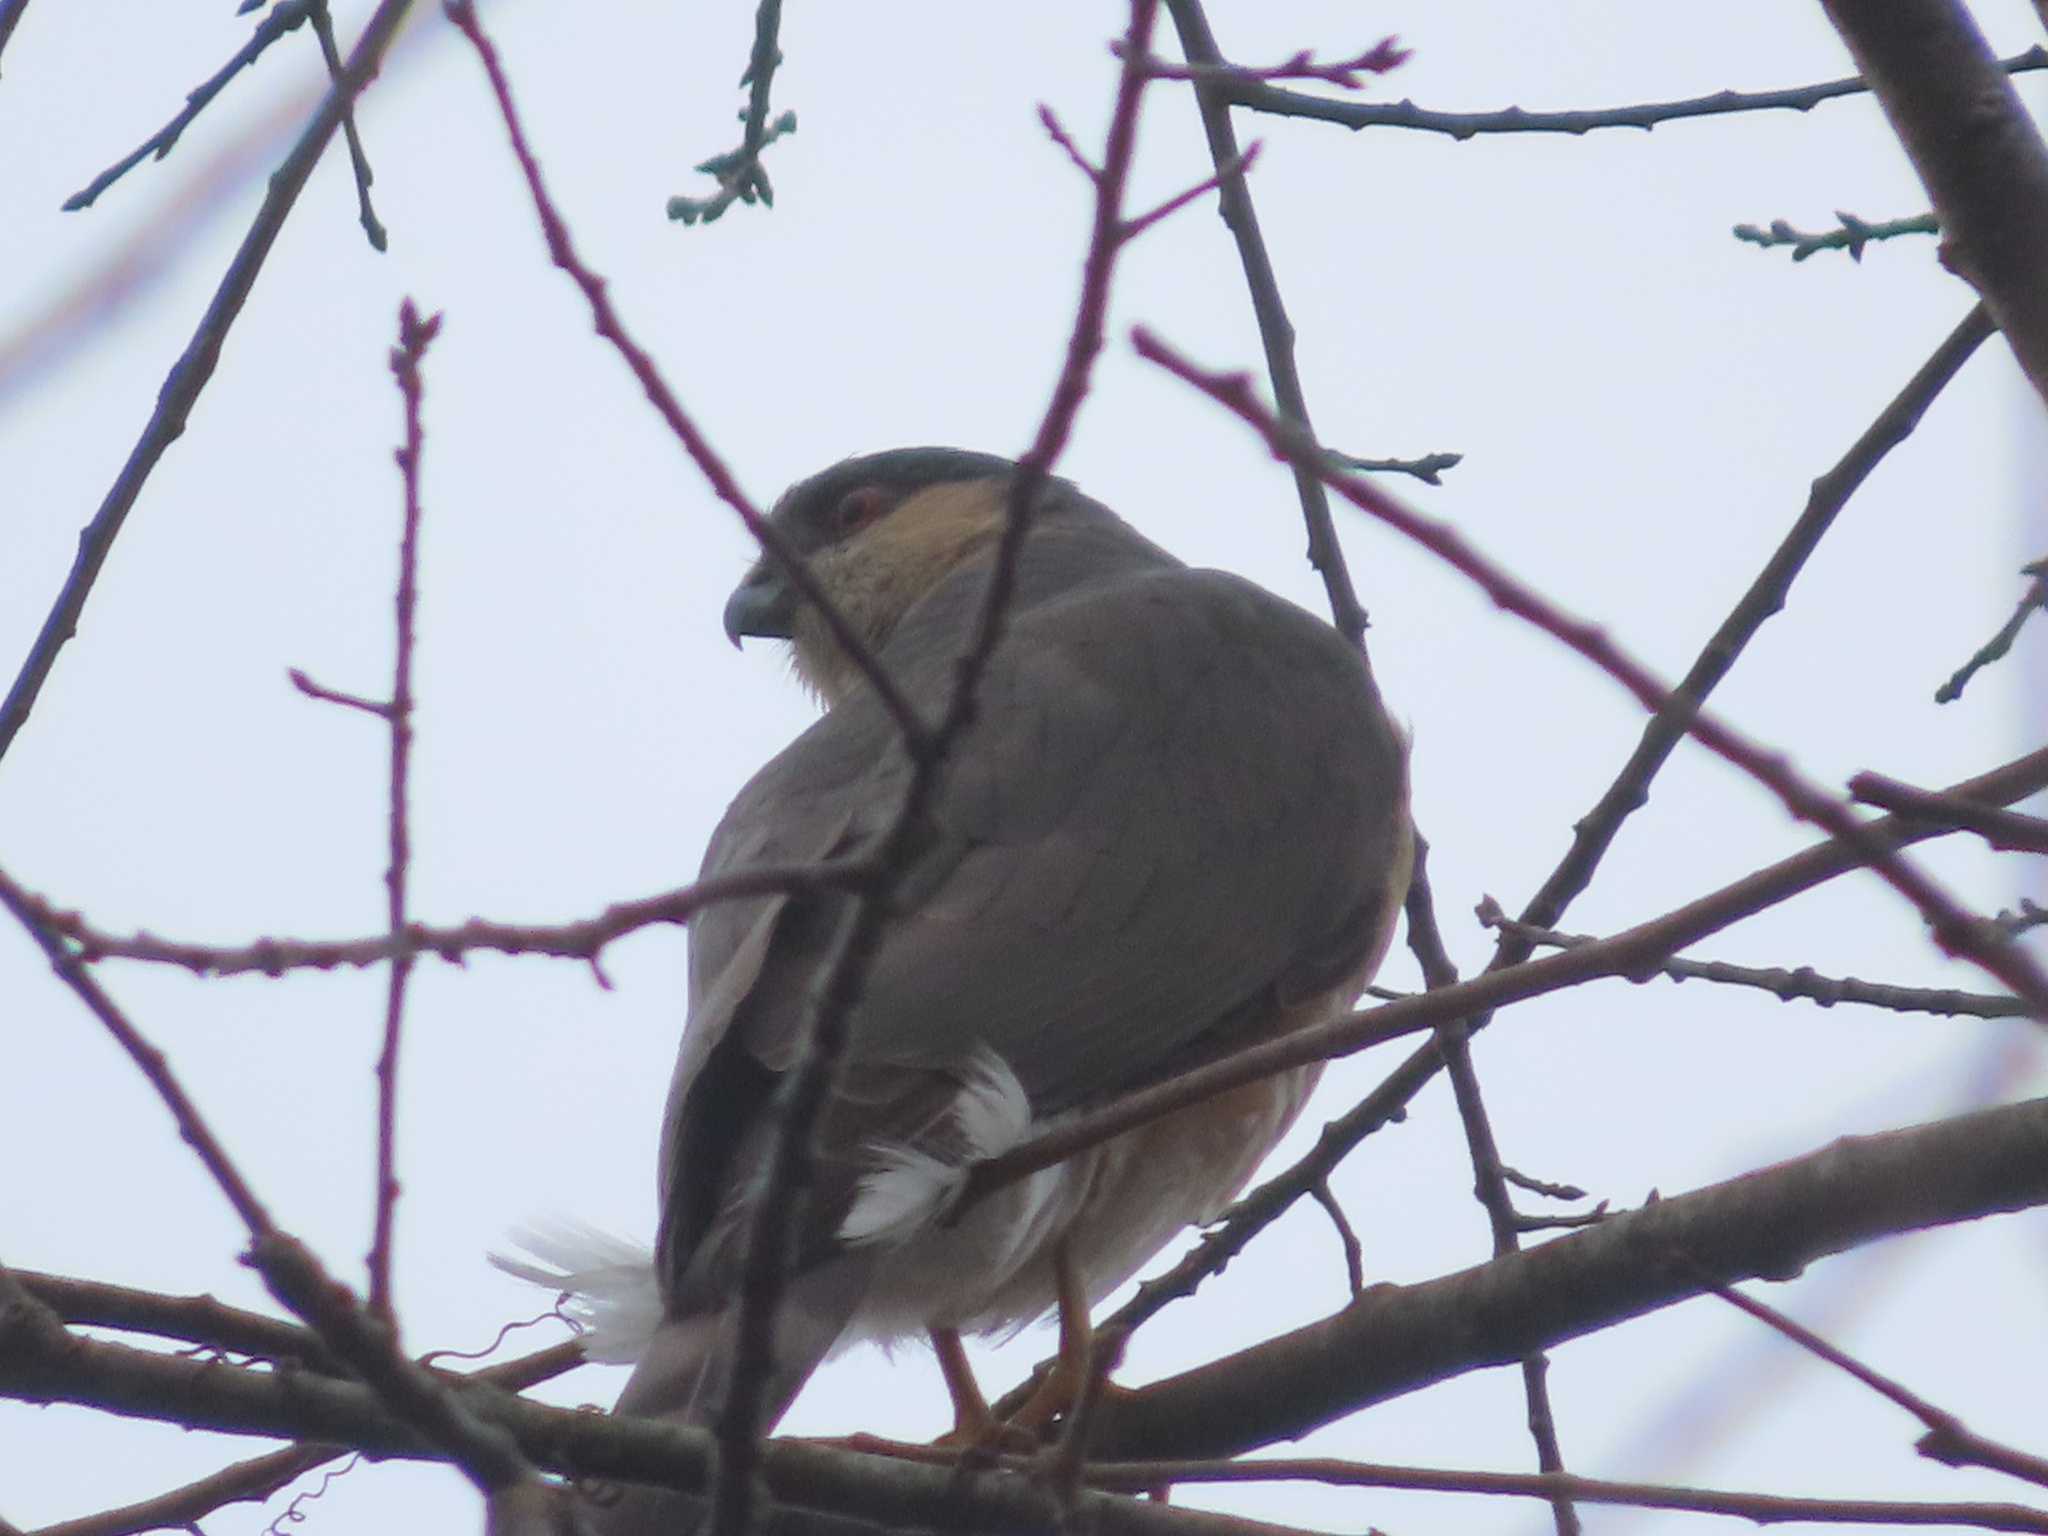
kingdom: Animalia
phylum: Chordata
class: Aves
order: Accipitriformes
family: Accipitridae
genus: Accipiter
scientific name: Accipiter striatus
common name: Sharp-shinned hawk
